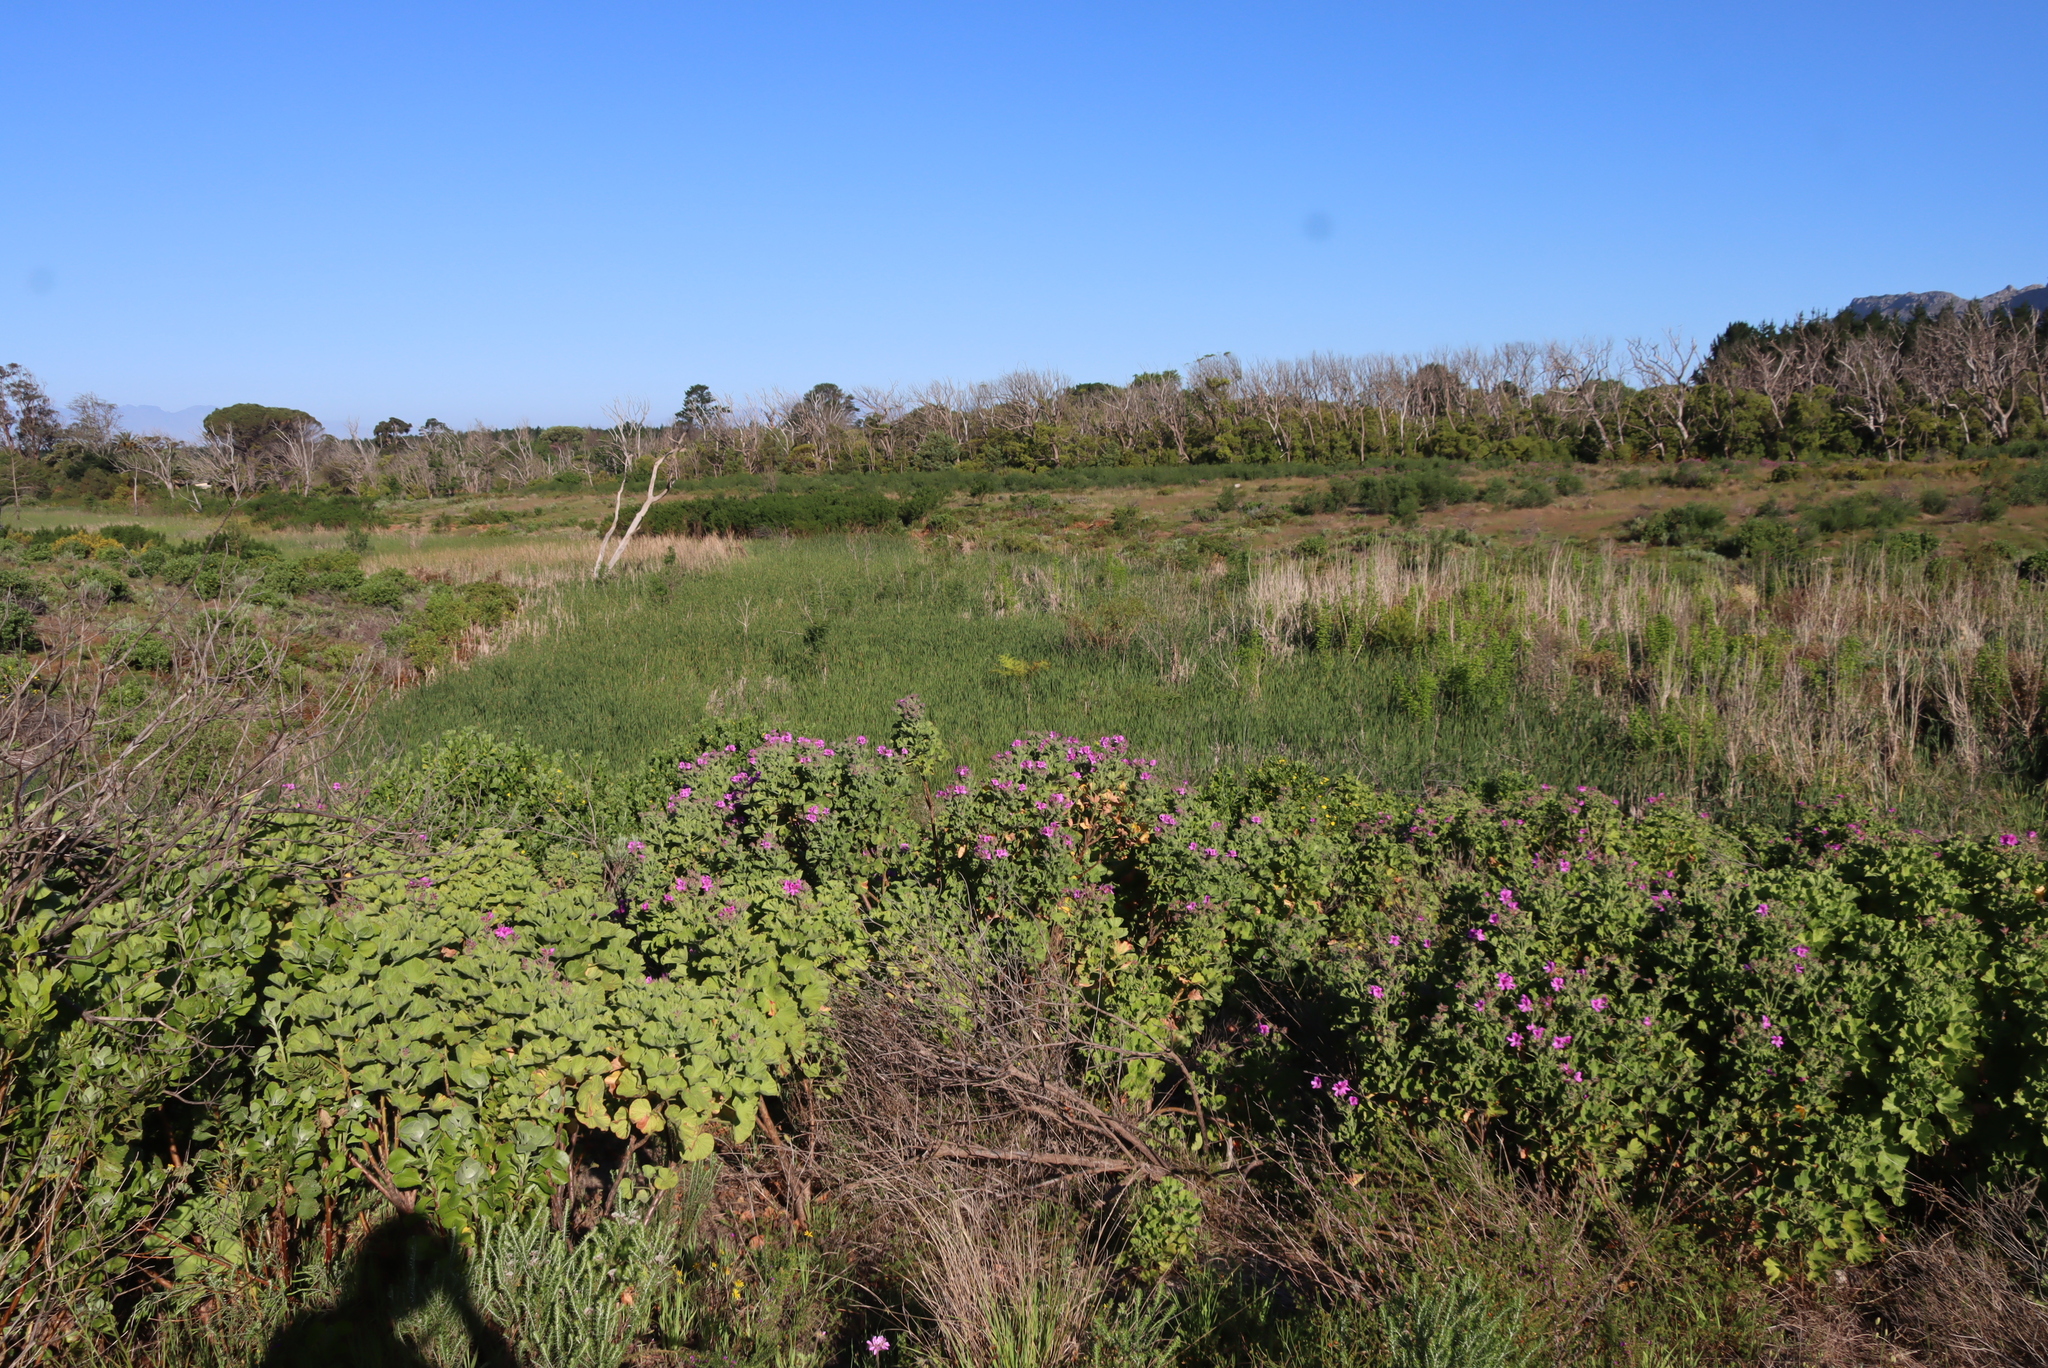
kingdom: Plantae
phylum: Tracheophyta
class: Magnoliopsida
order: Geraniales
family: Geraniaceae
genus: Pelargonium
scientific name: Pelargonium cucullatum
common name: Tree pelargonium
